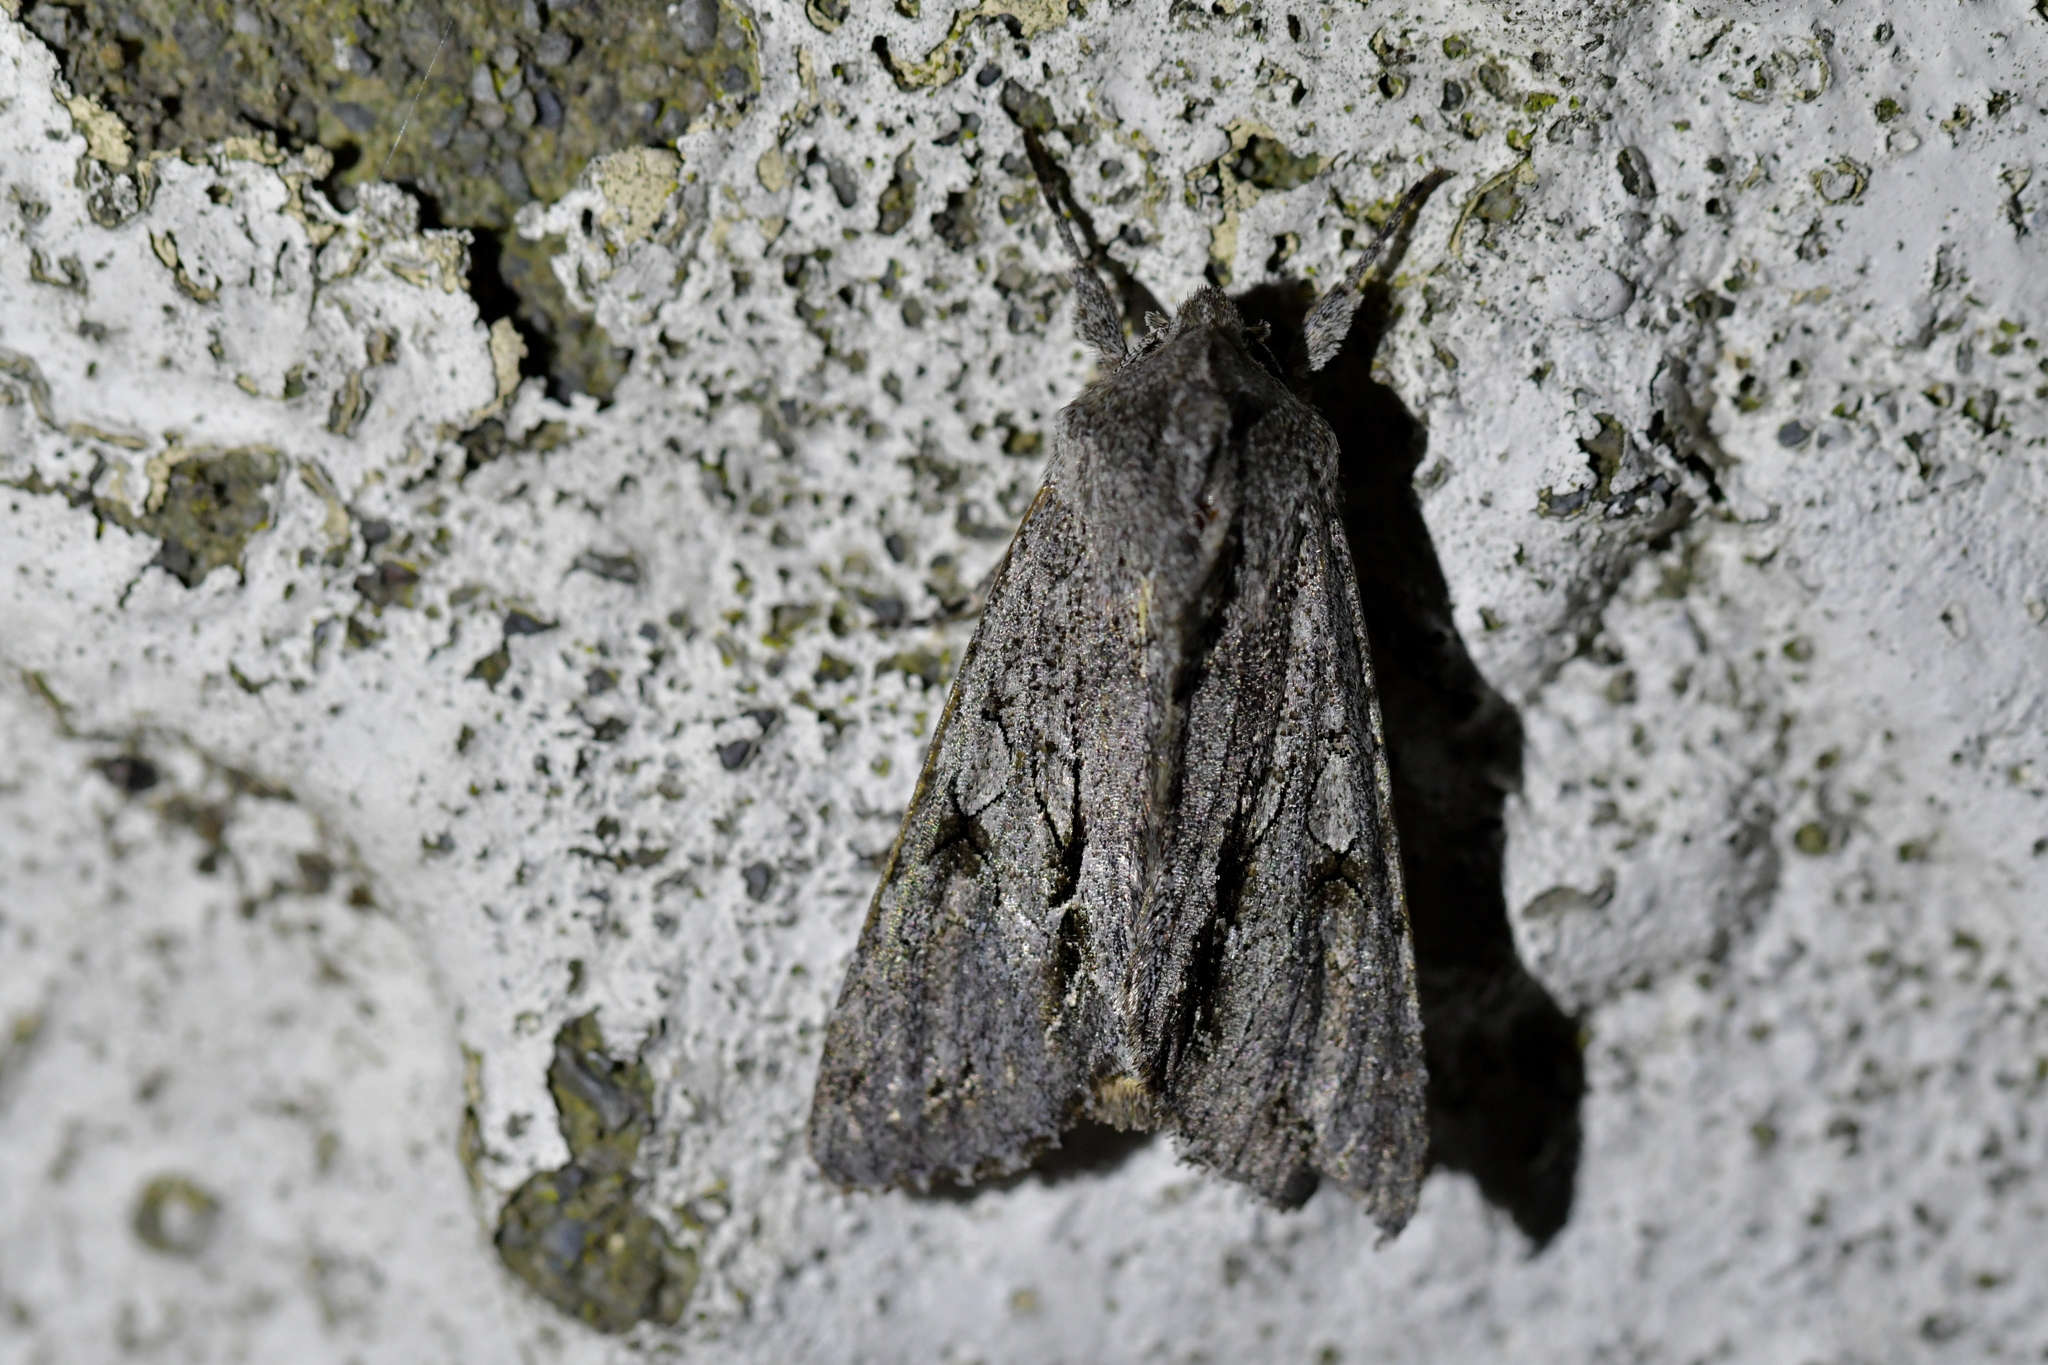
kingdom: Animalia
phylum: Arthropoda
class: Insecta
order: Lepidoptera
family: Noctuidae
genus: Ichneutica
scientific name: Ichneutica
